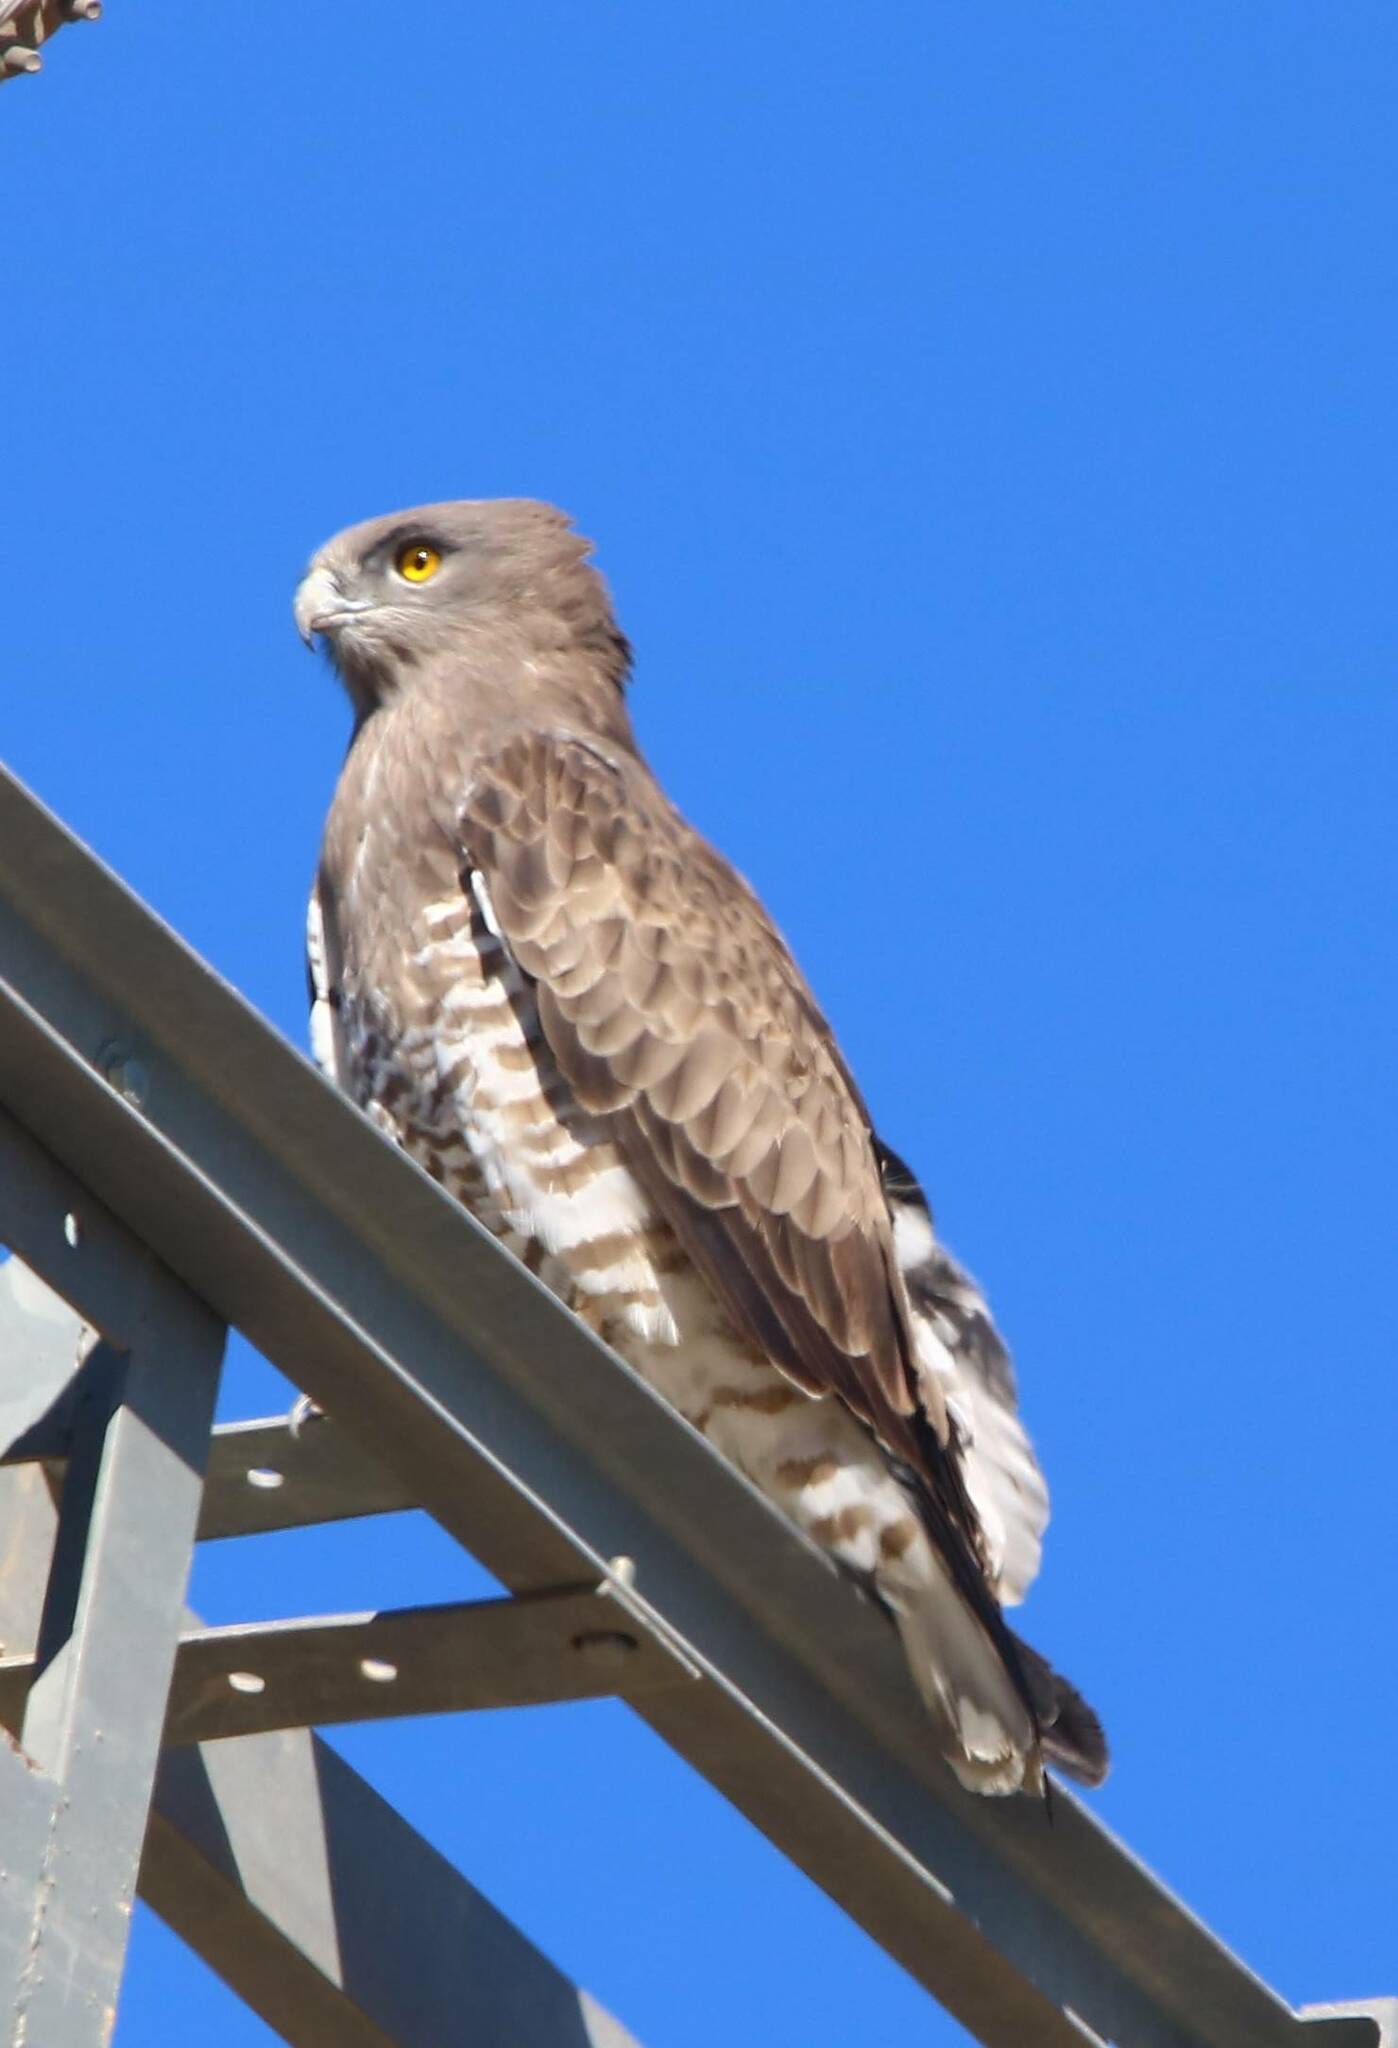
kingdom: Animalia
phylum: Chordata
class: Aves
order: Accipitriformes
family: Accipitridae
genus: Circaetus
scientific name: Circaetus gallicus
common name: Short-toed snake eagle
